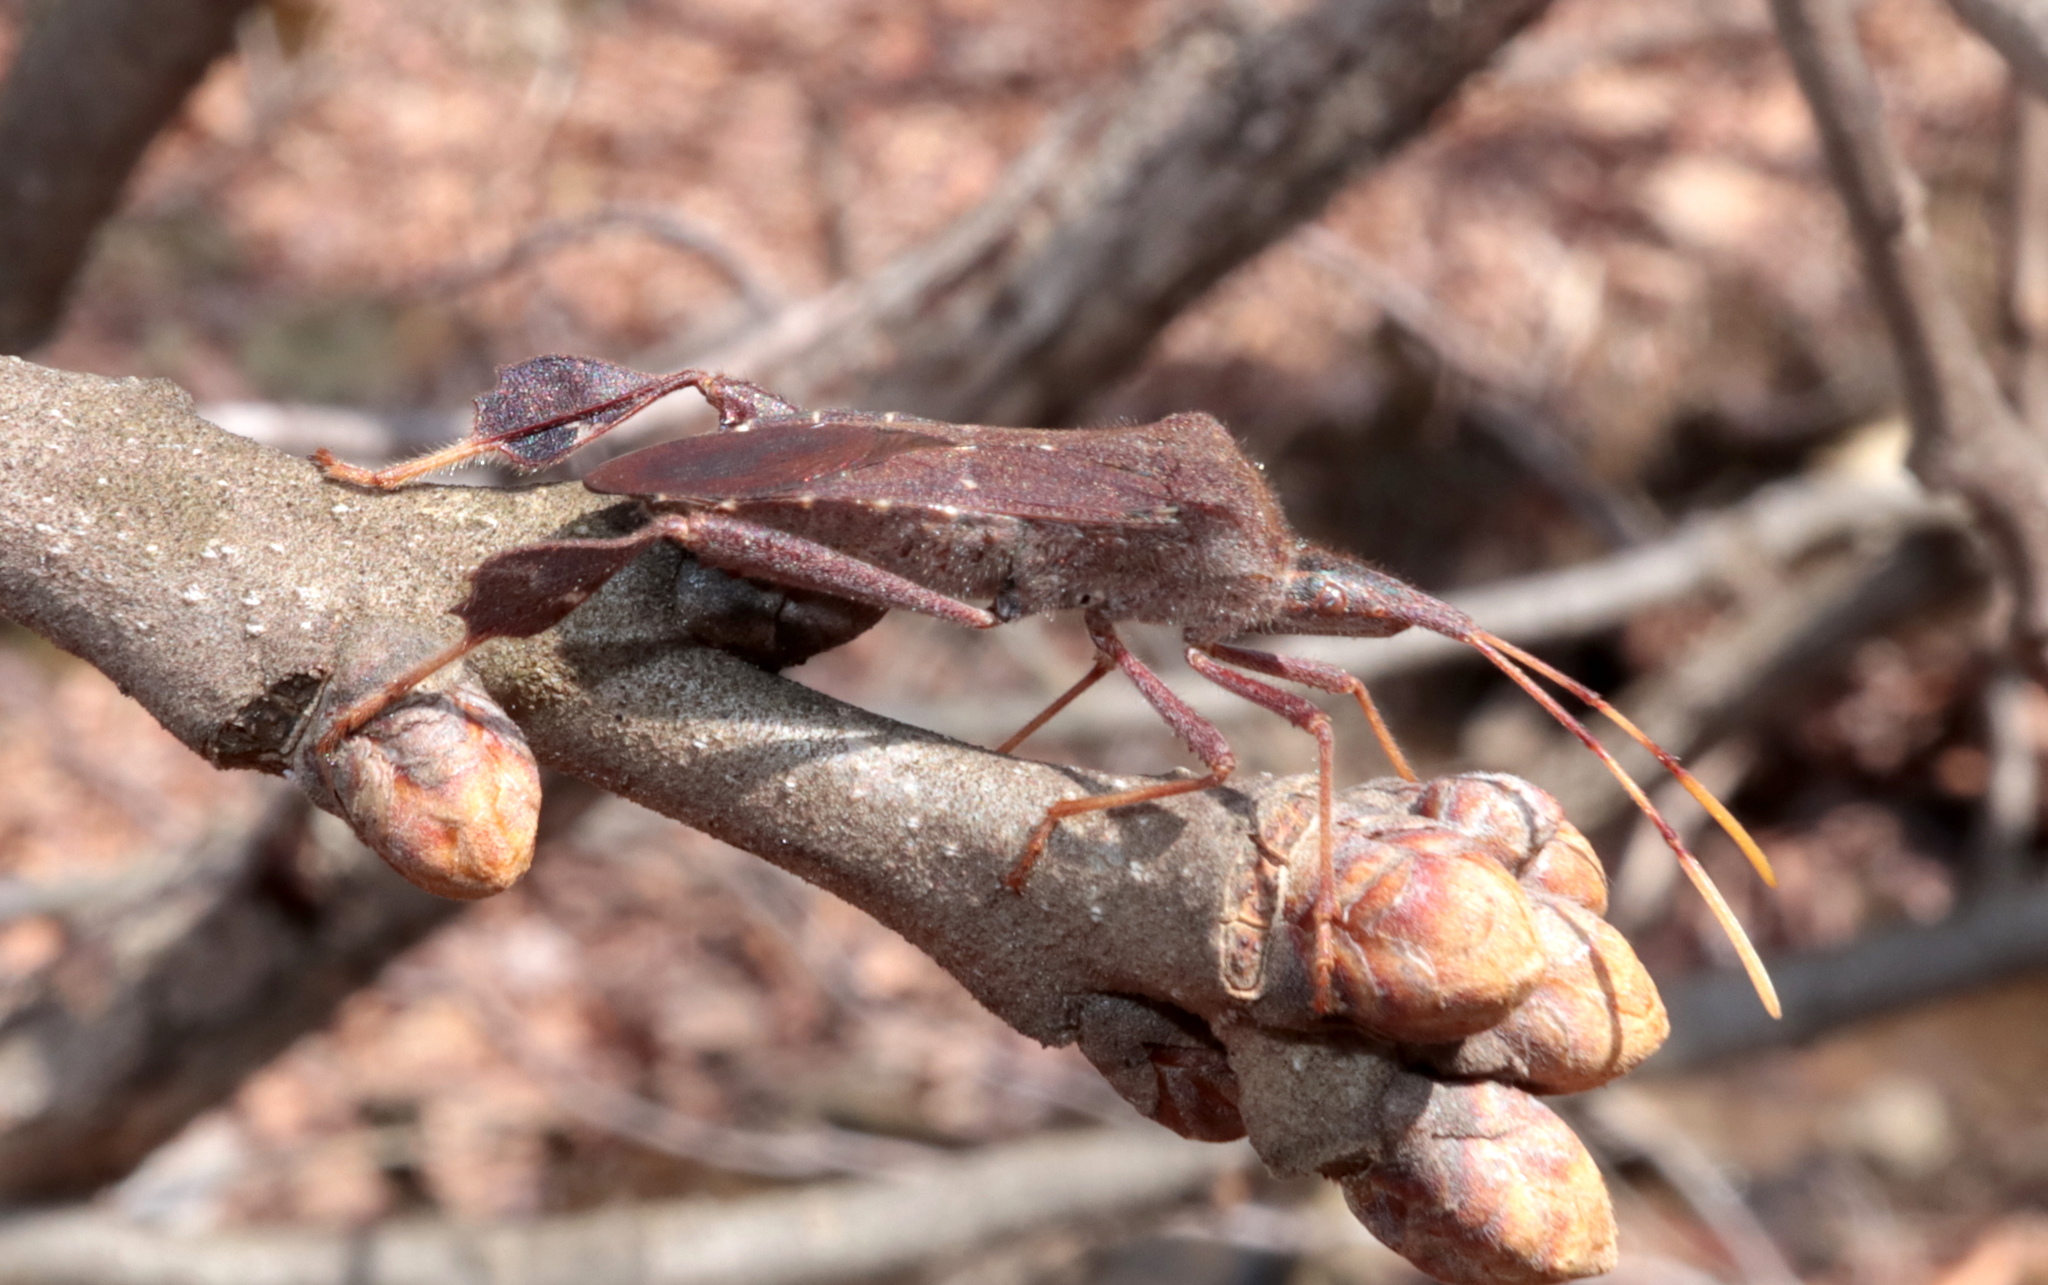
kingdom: Animalia
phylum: Arthropoda
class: Insecta
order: Hemiptera
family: Coreidae
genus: Leptoglossus
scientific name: Leptoglossus oppositus
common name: Northern leaf-footed bug
